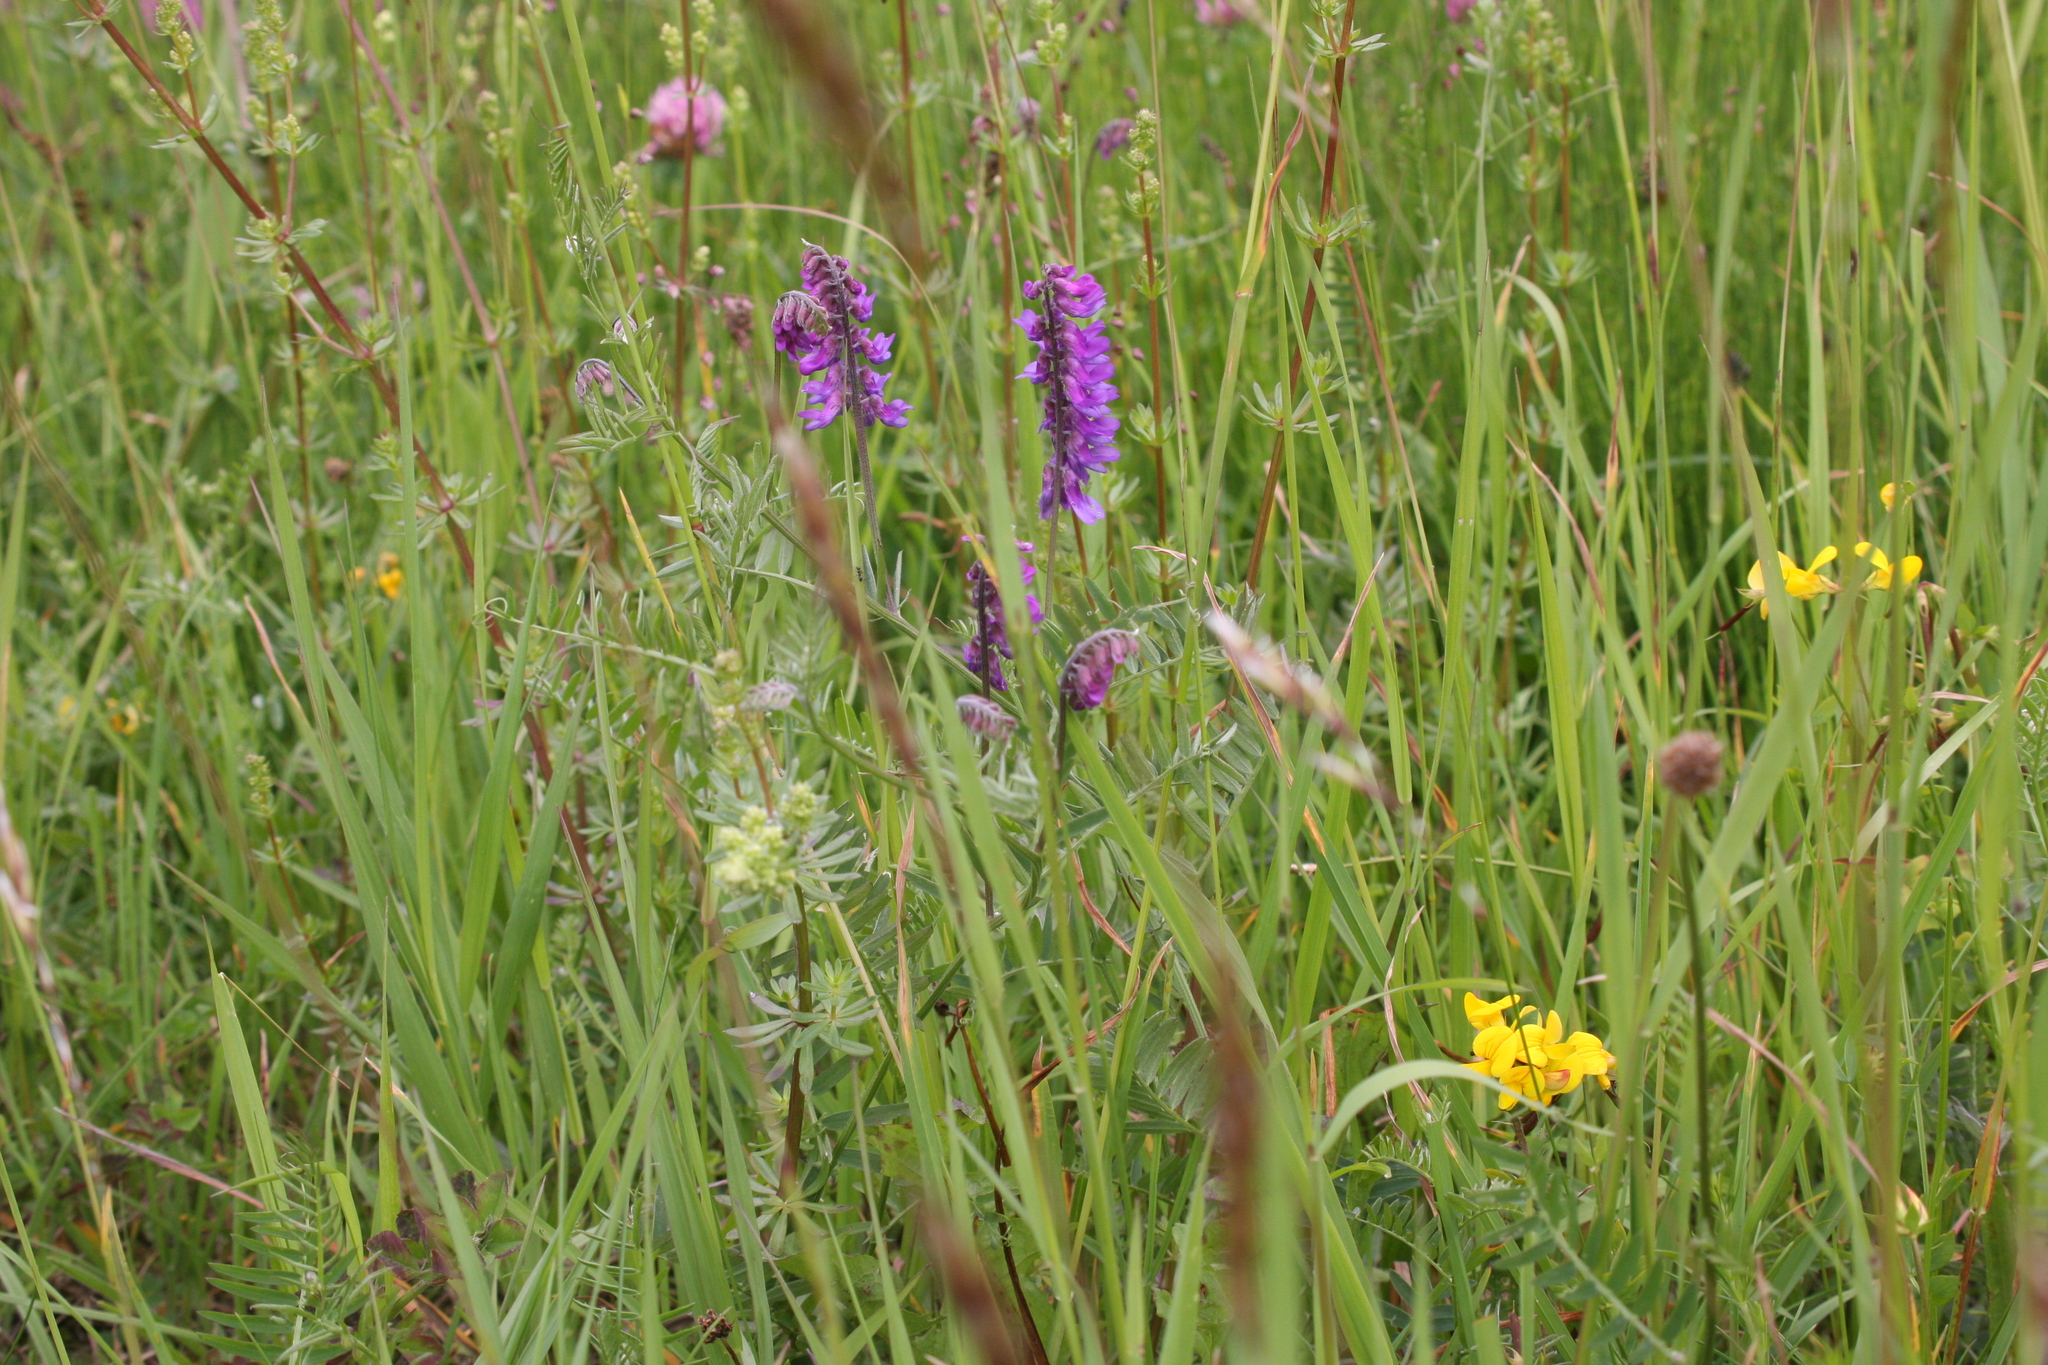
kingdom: Plantae
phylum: Tracheophyta
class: Magnoliopsida
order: Fabales
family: Fabaceae
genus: Vicia
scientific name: Vicia cracca
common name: Bird vetch
